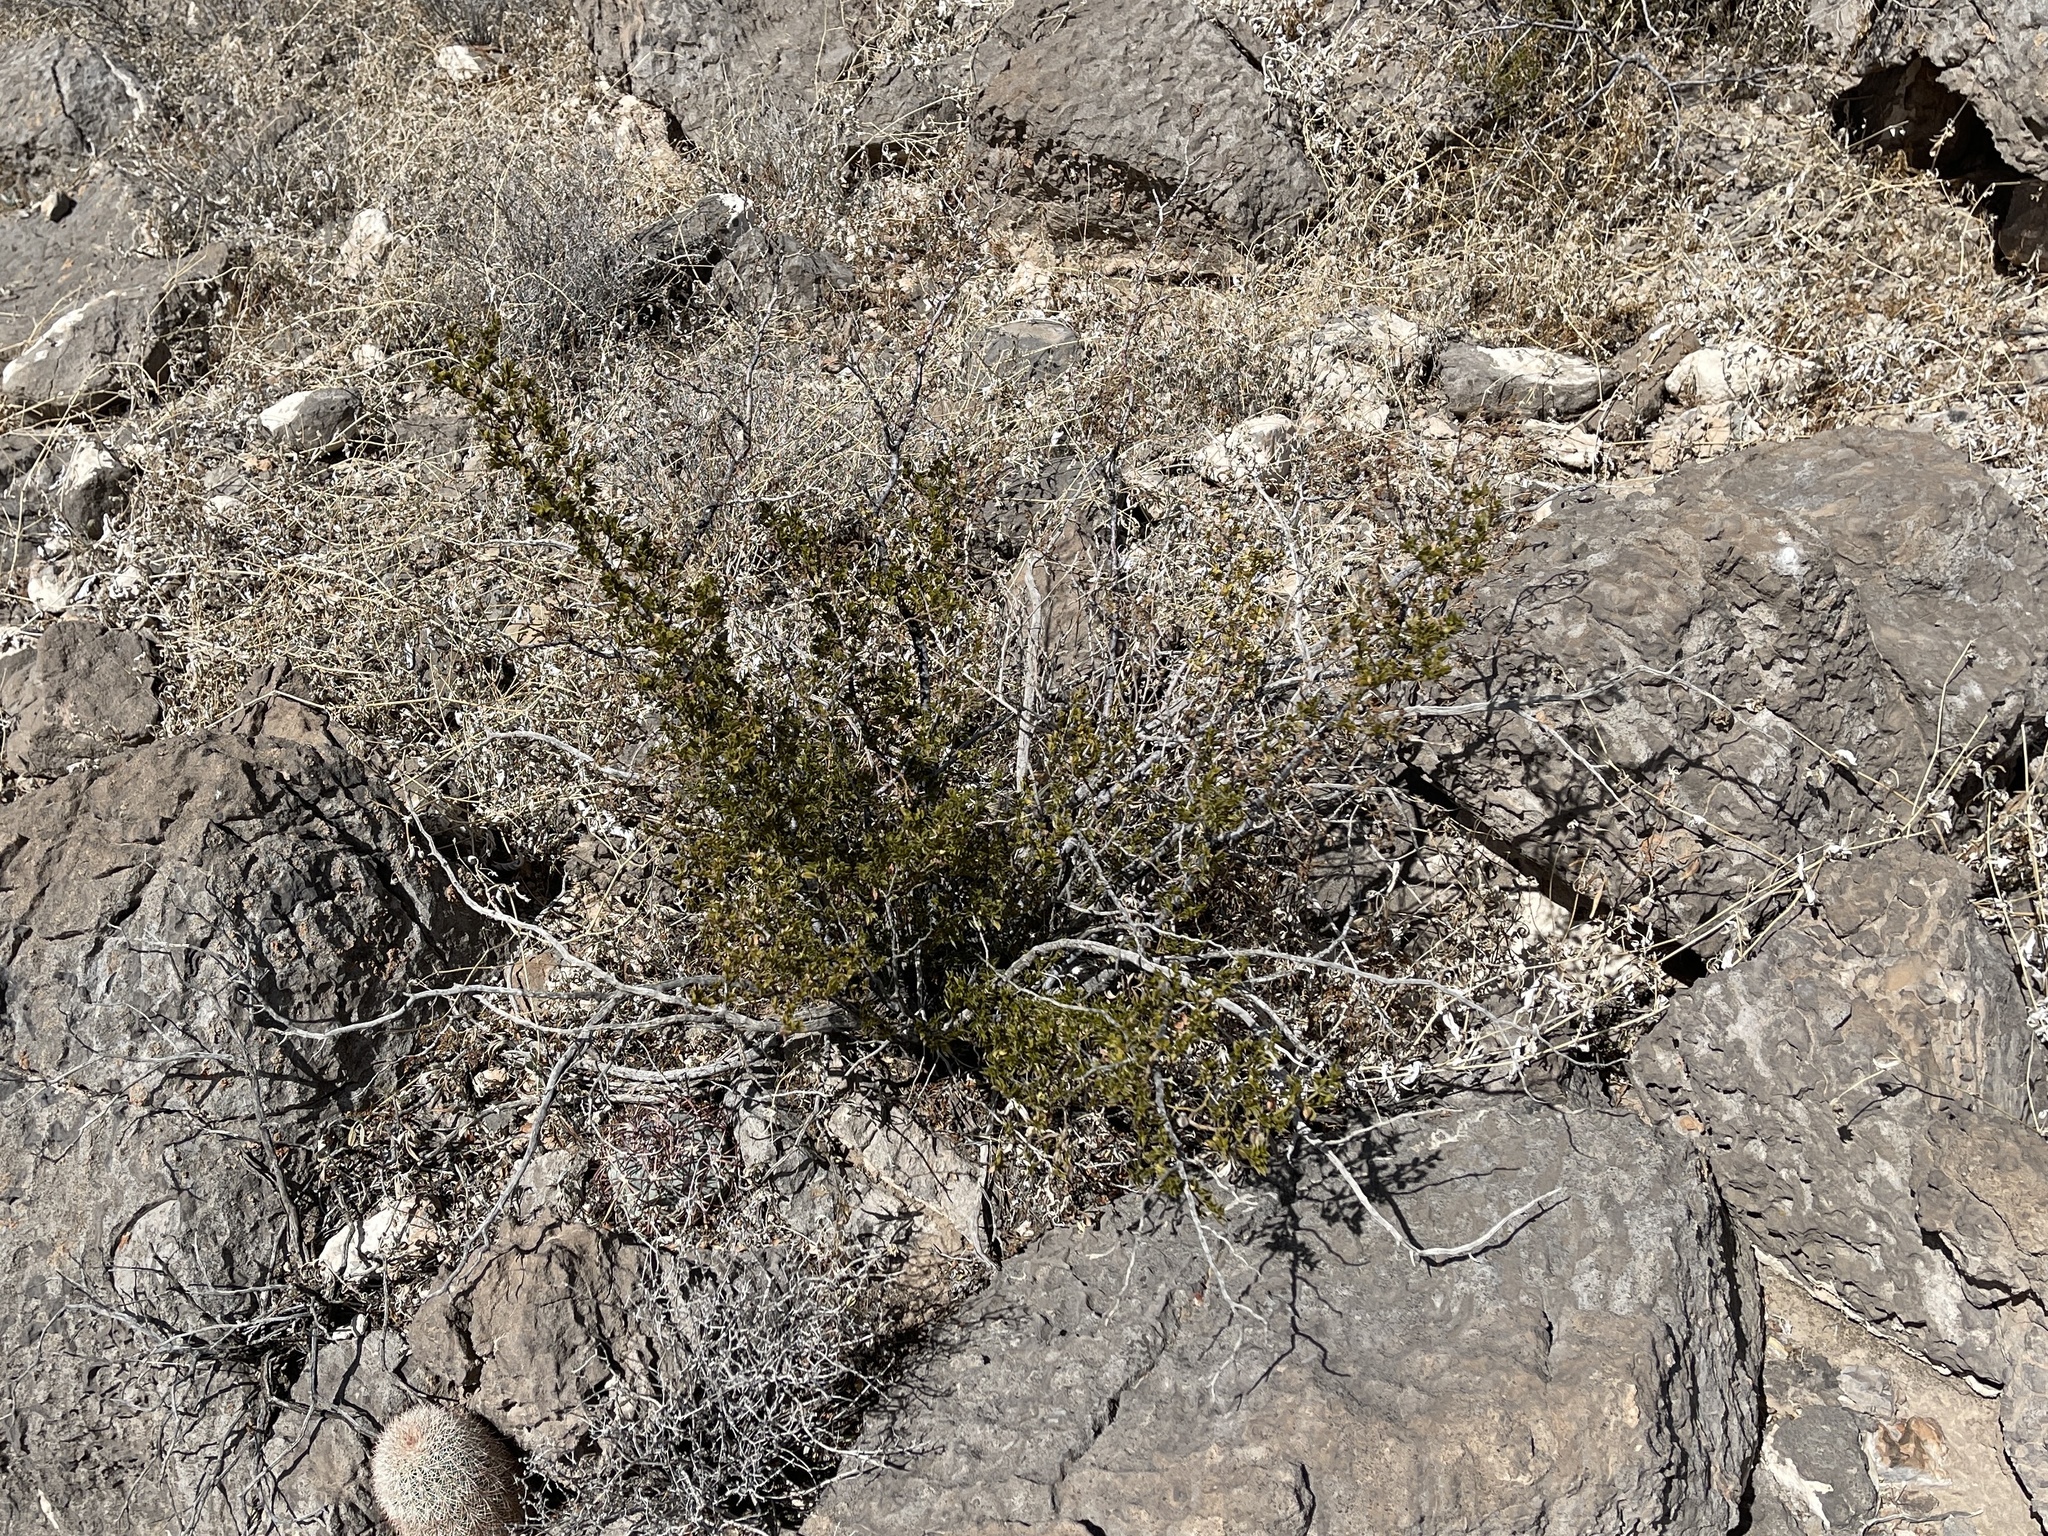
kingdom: Plantae
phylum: Tracheophyta
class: Magnoliopsida
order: Zygophyllales
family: Zygophyllaceae
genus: Larrea
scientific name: Larrea tridentata
